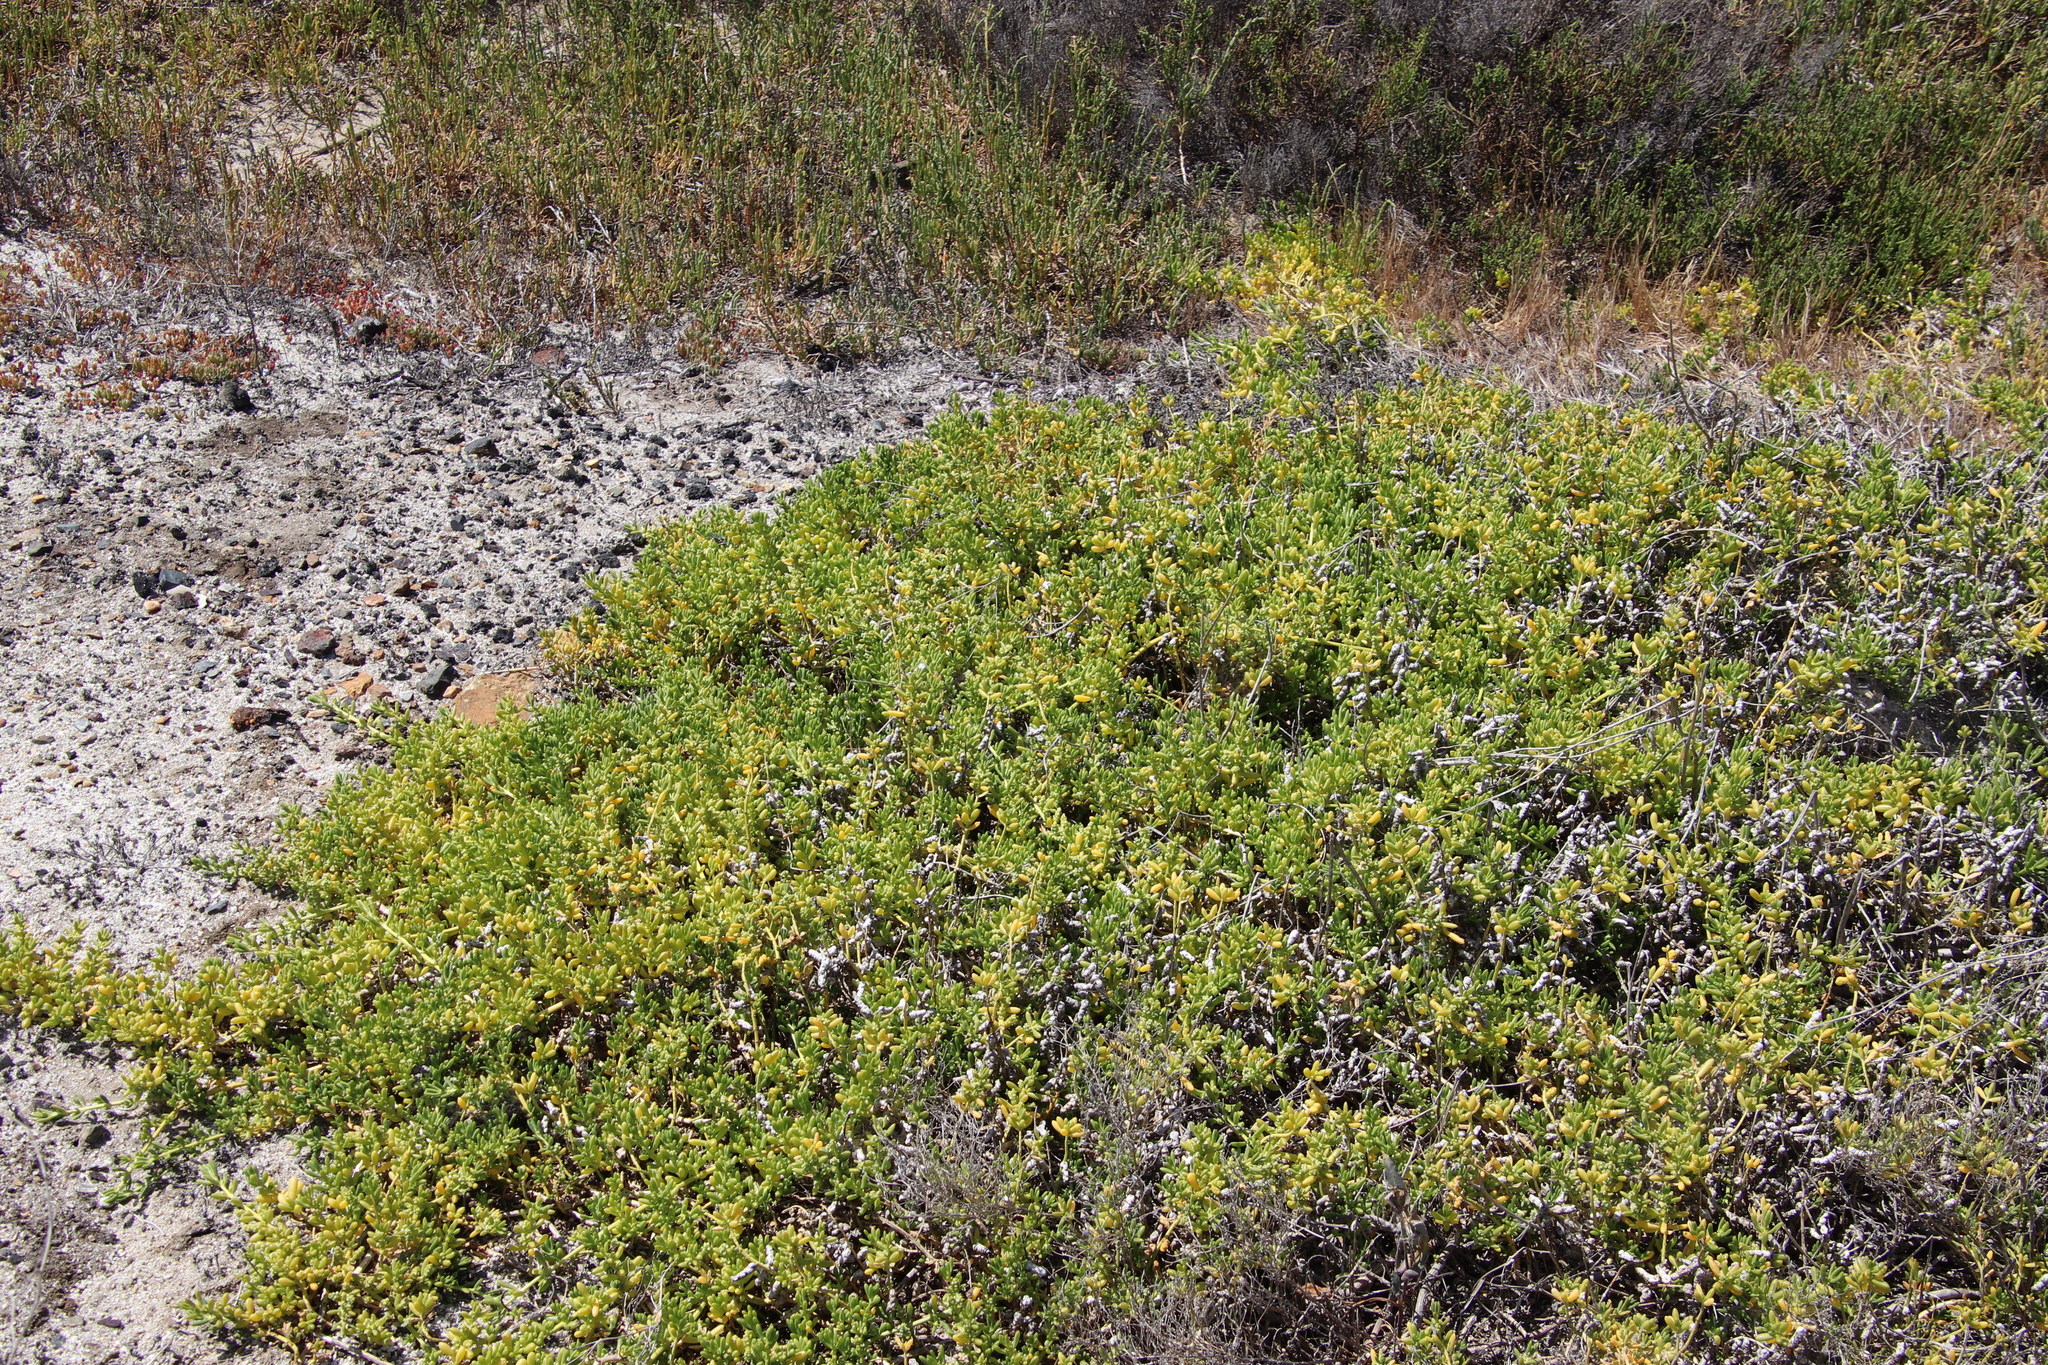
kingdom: Plantae
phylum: Tracheophyta
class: Magnoliopsida
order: Brassicales
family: Bataceae
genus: Batis
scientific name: Batis maritima
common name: Turtleweed
